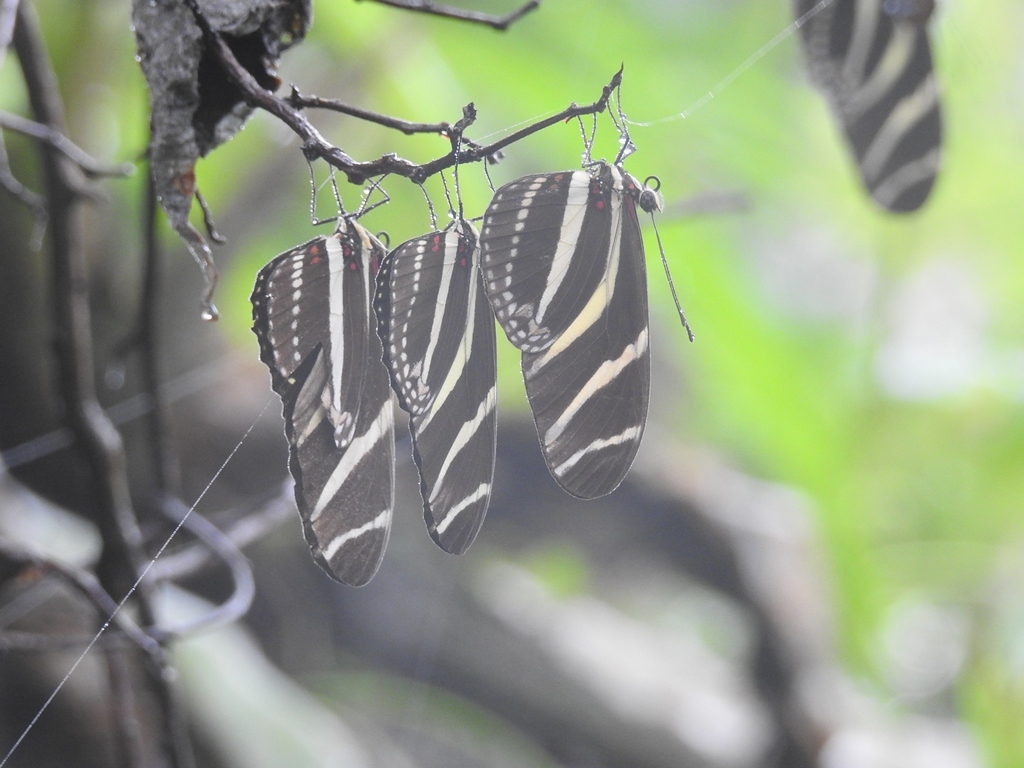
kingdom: Animalia
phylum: Arthropoda
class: Insecta
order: Lepidoptera
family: Nymphalidae
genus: Heliconius
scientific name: Heliconius charithonia
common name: Zebra long wing
